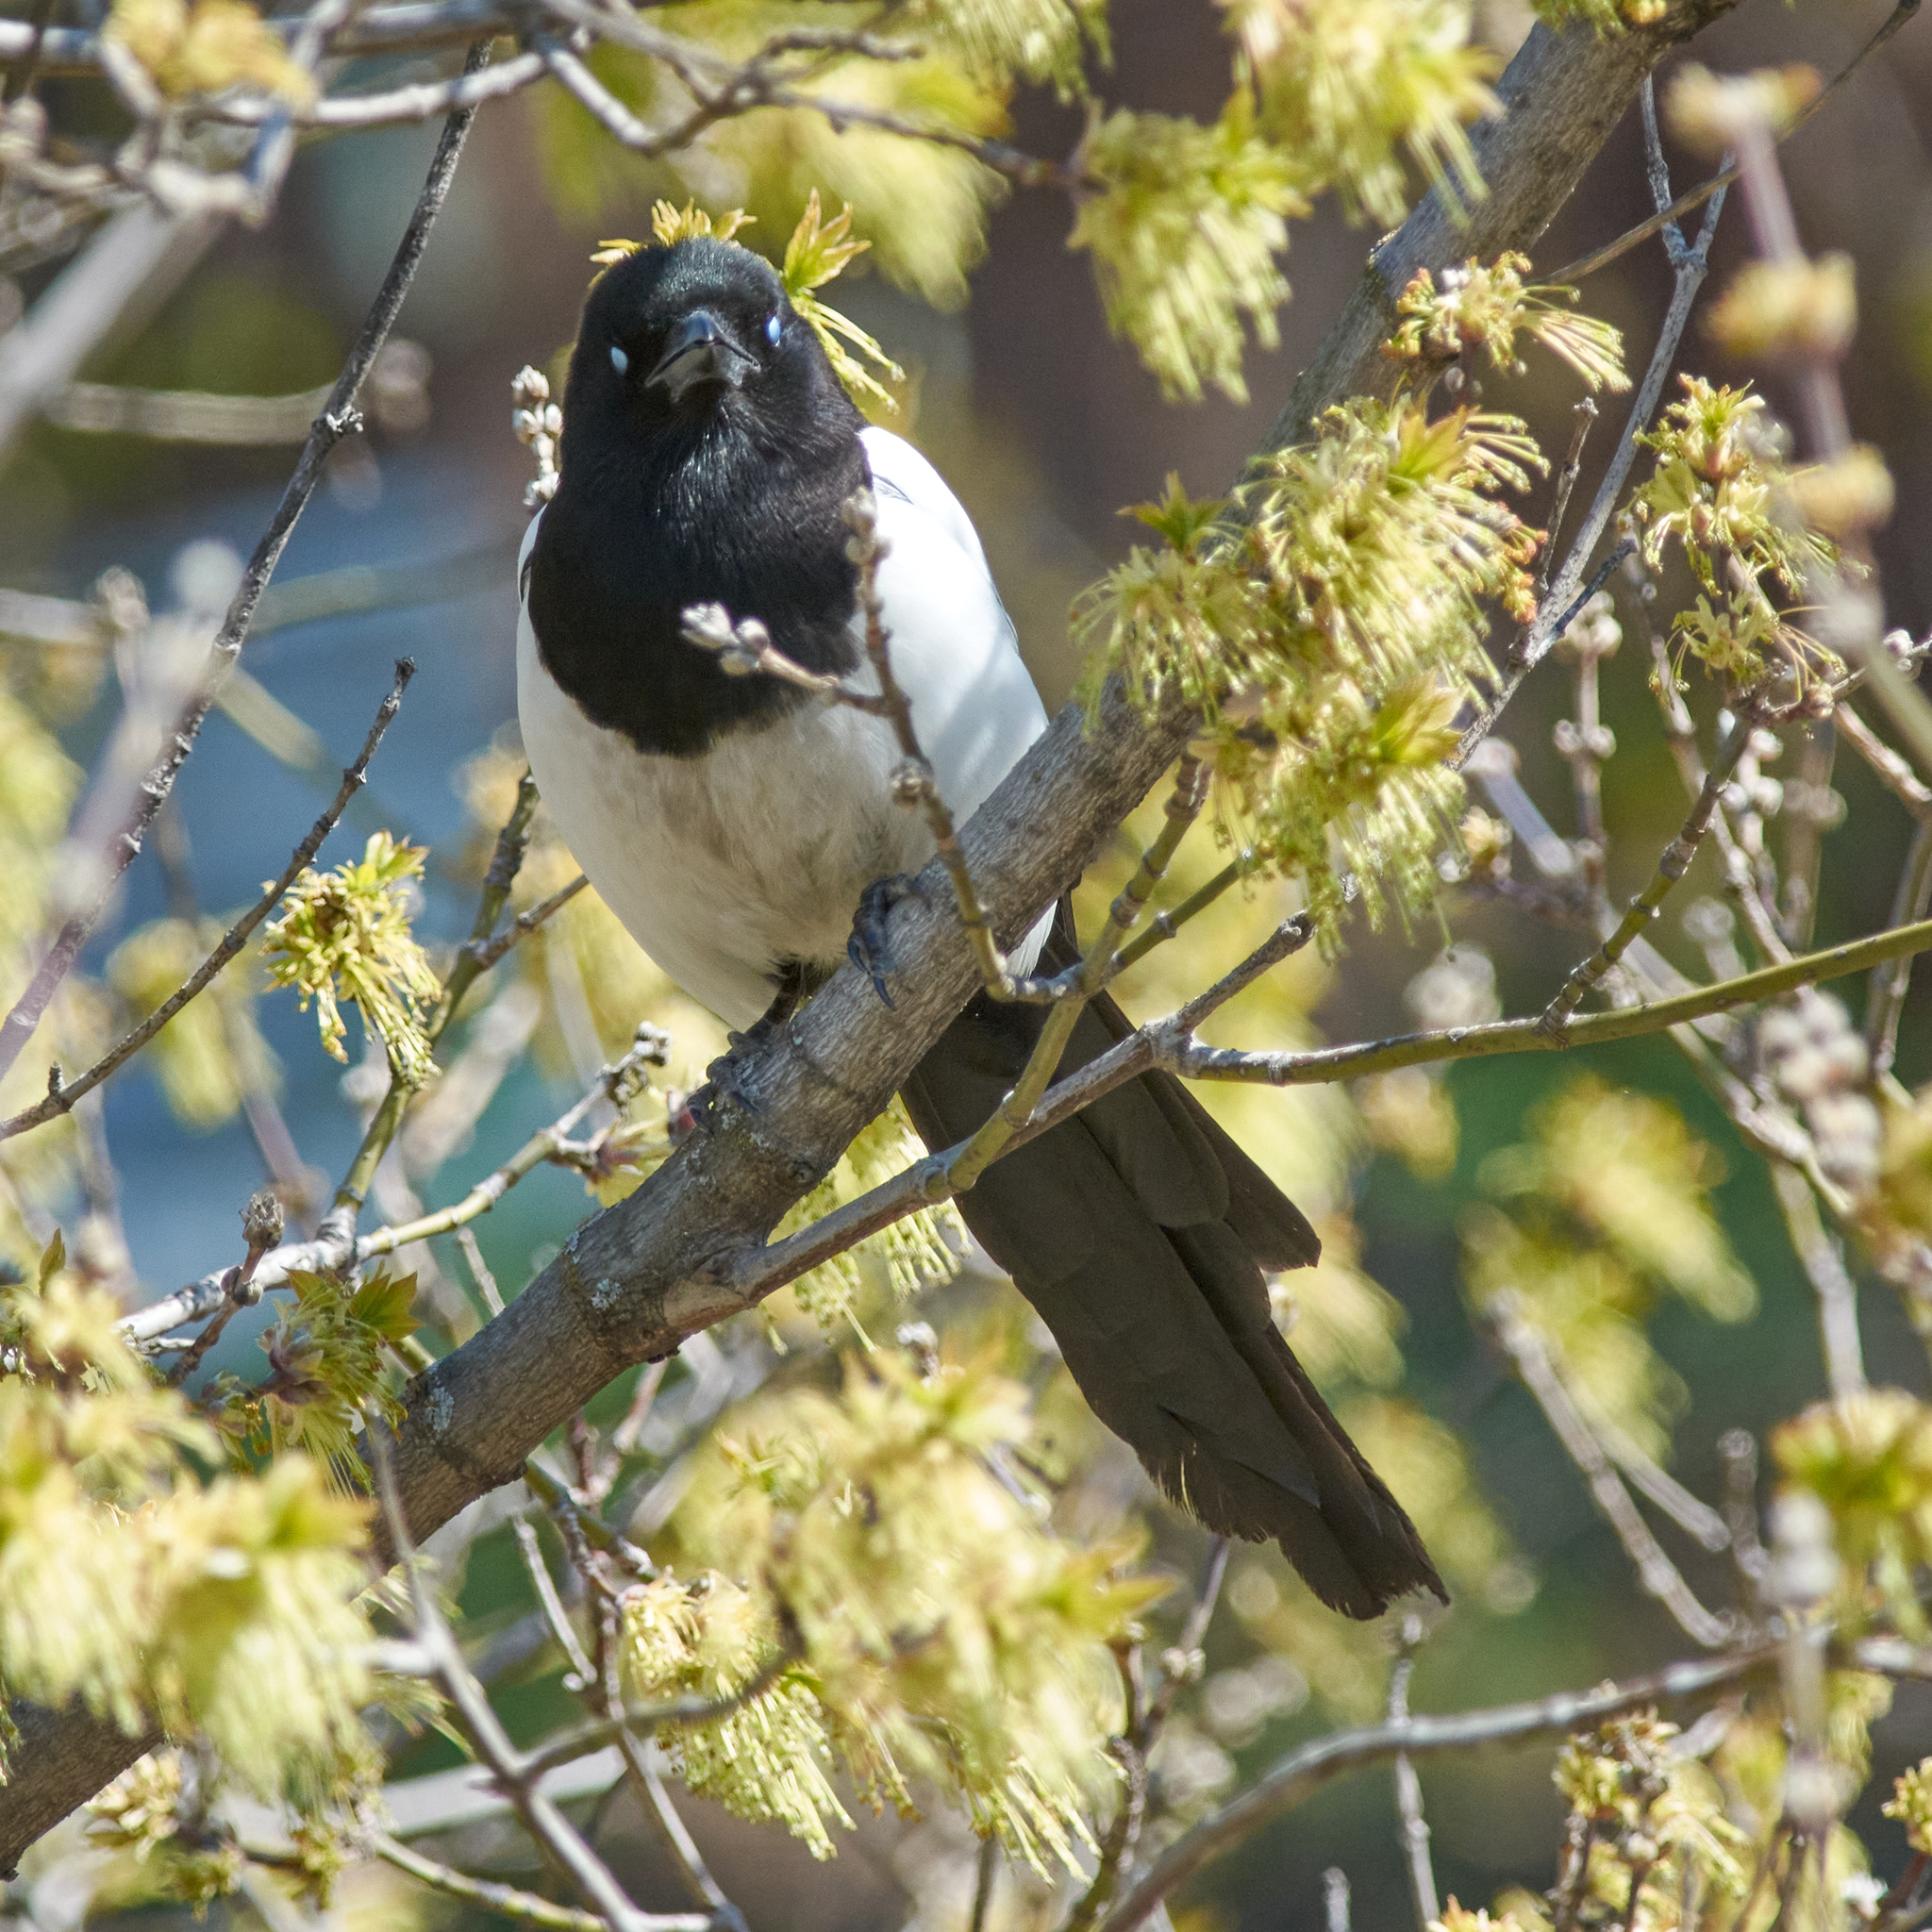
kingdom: Animalia
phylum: Chordata
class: Aves
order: Passeriformes
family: Corvidae
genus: Pica
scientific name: Pica pica
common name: Eurasian magpie
